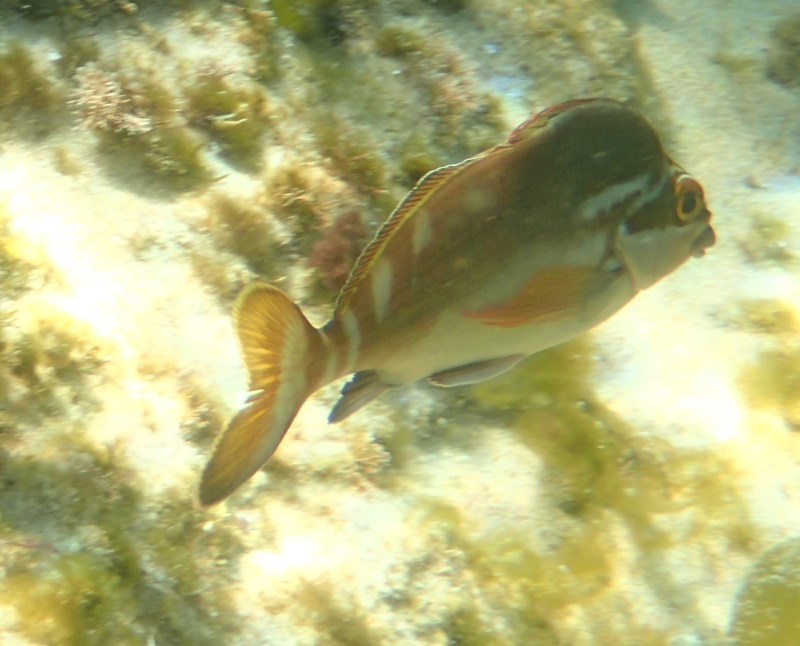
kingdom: Animalia
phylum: Chordata
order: Perciformes
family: Latridae
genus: Morwong
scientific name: Morwong fuscus
